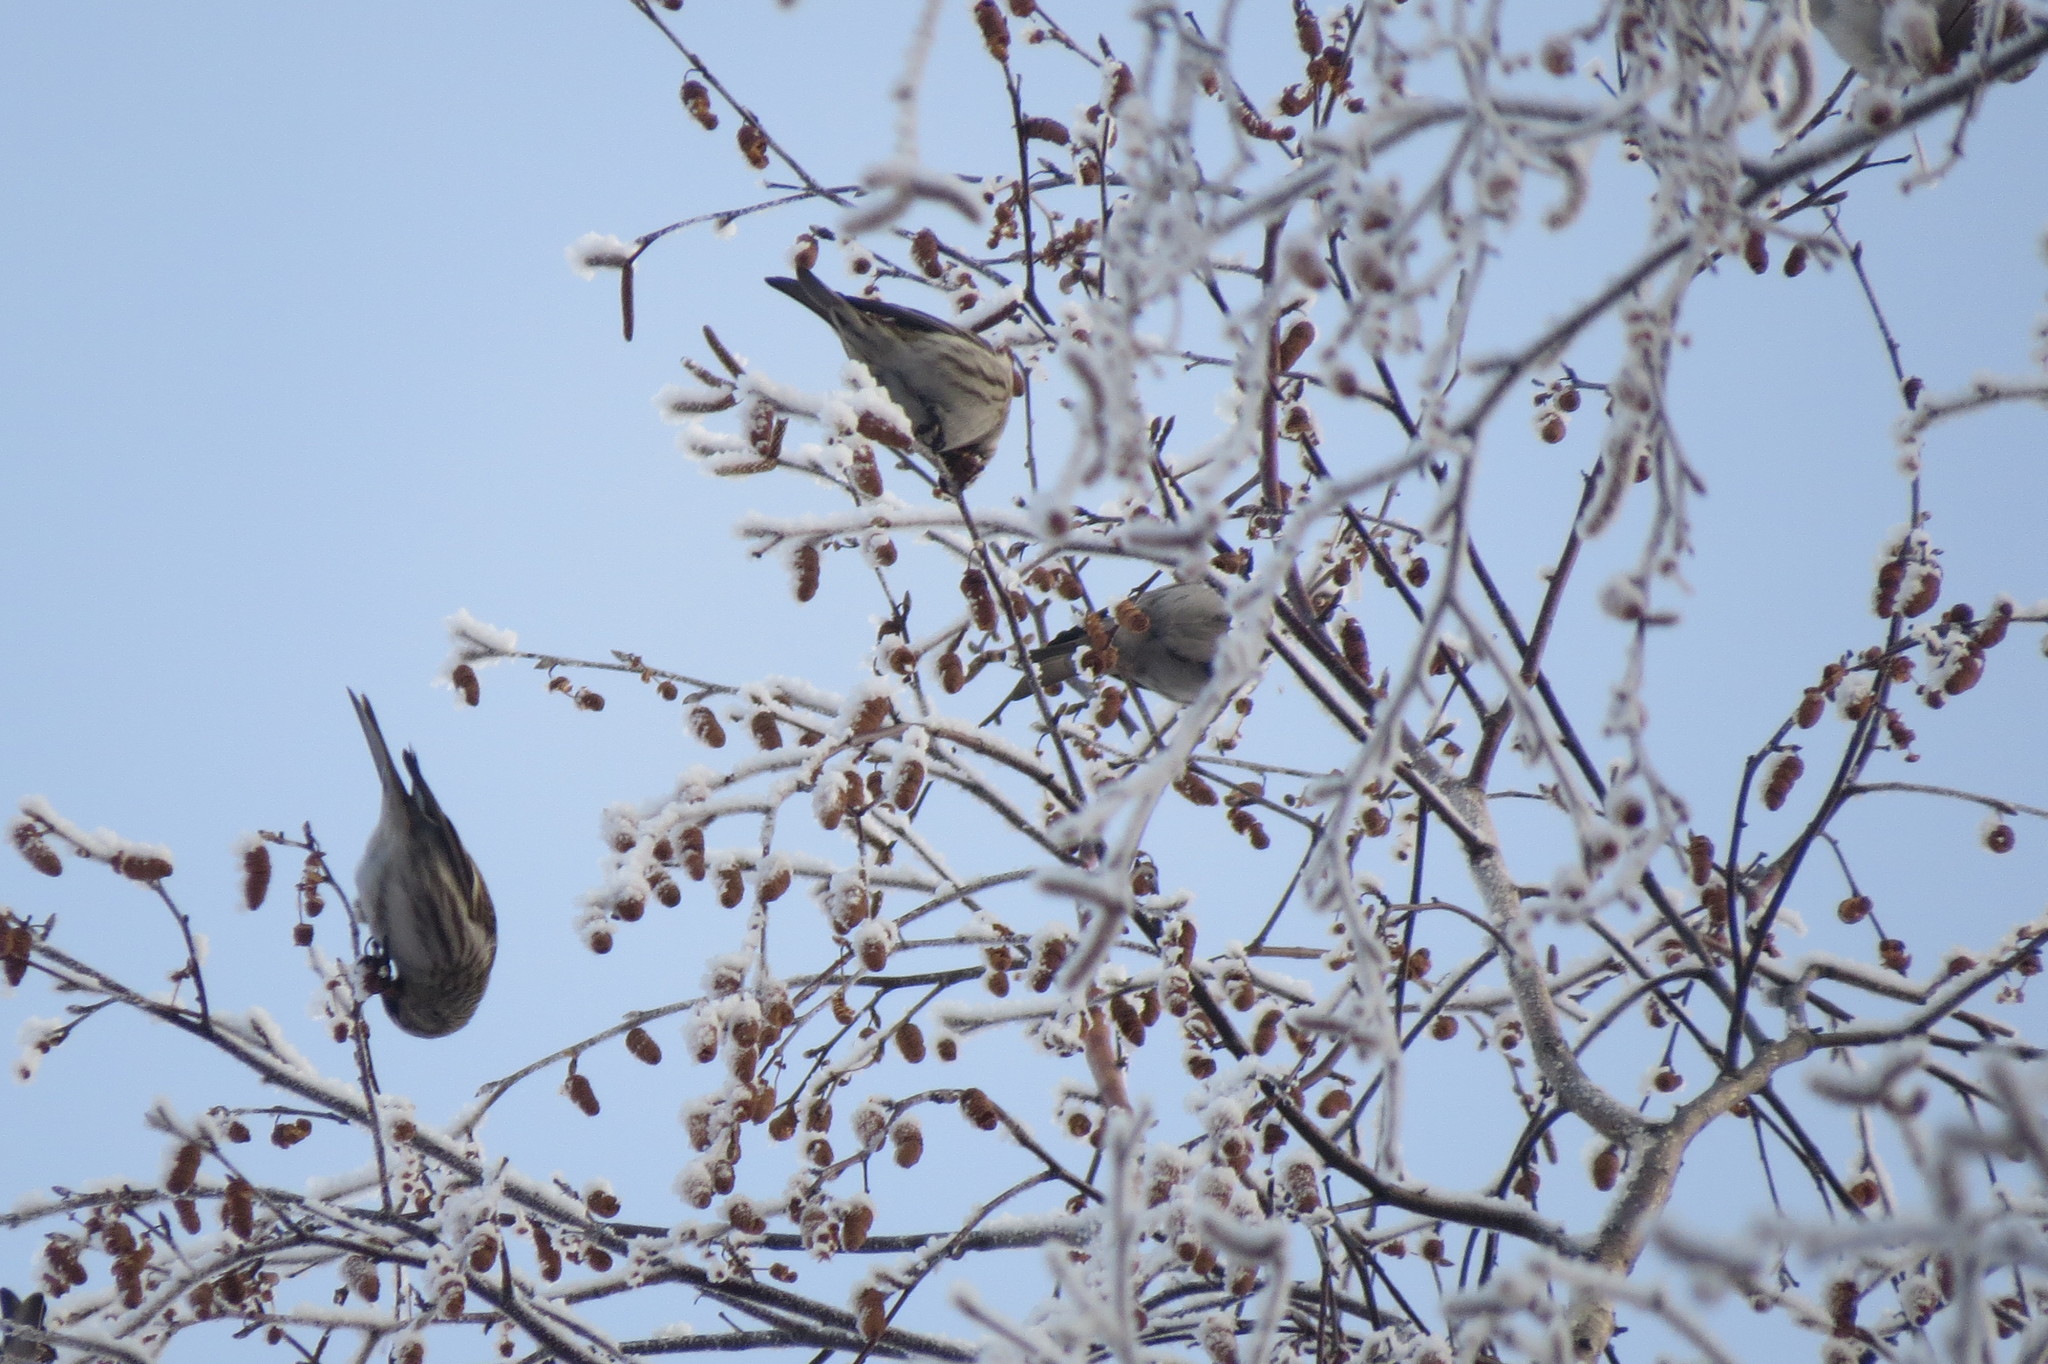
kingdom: Animalia
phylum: Chordata
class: Aves
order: Passeriformes
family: Fringillidae
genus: Acanthis
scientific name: Acanthis flammea
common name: Common redpoll
